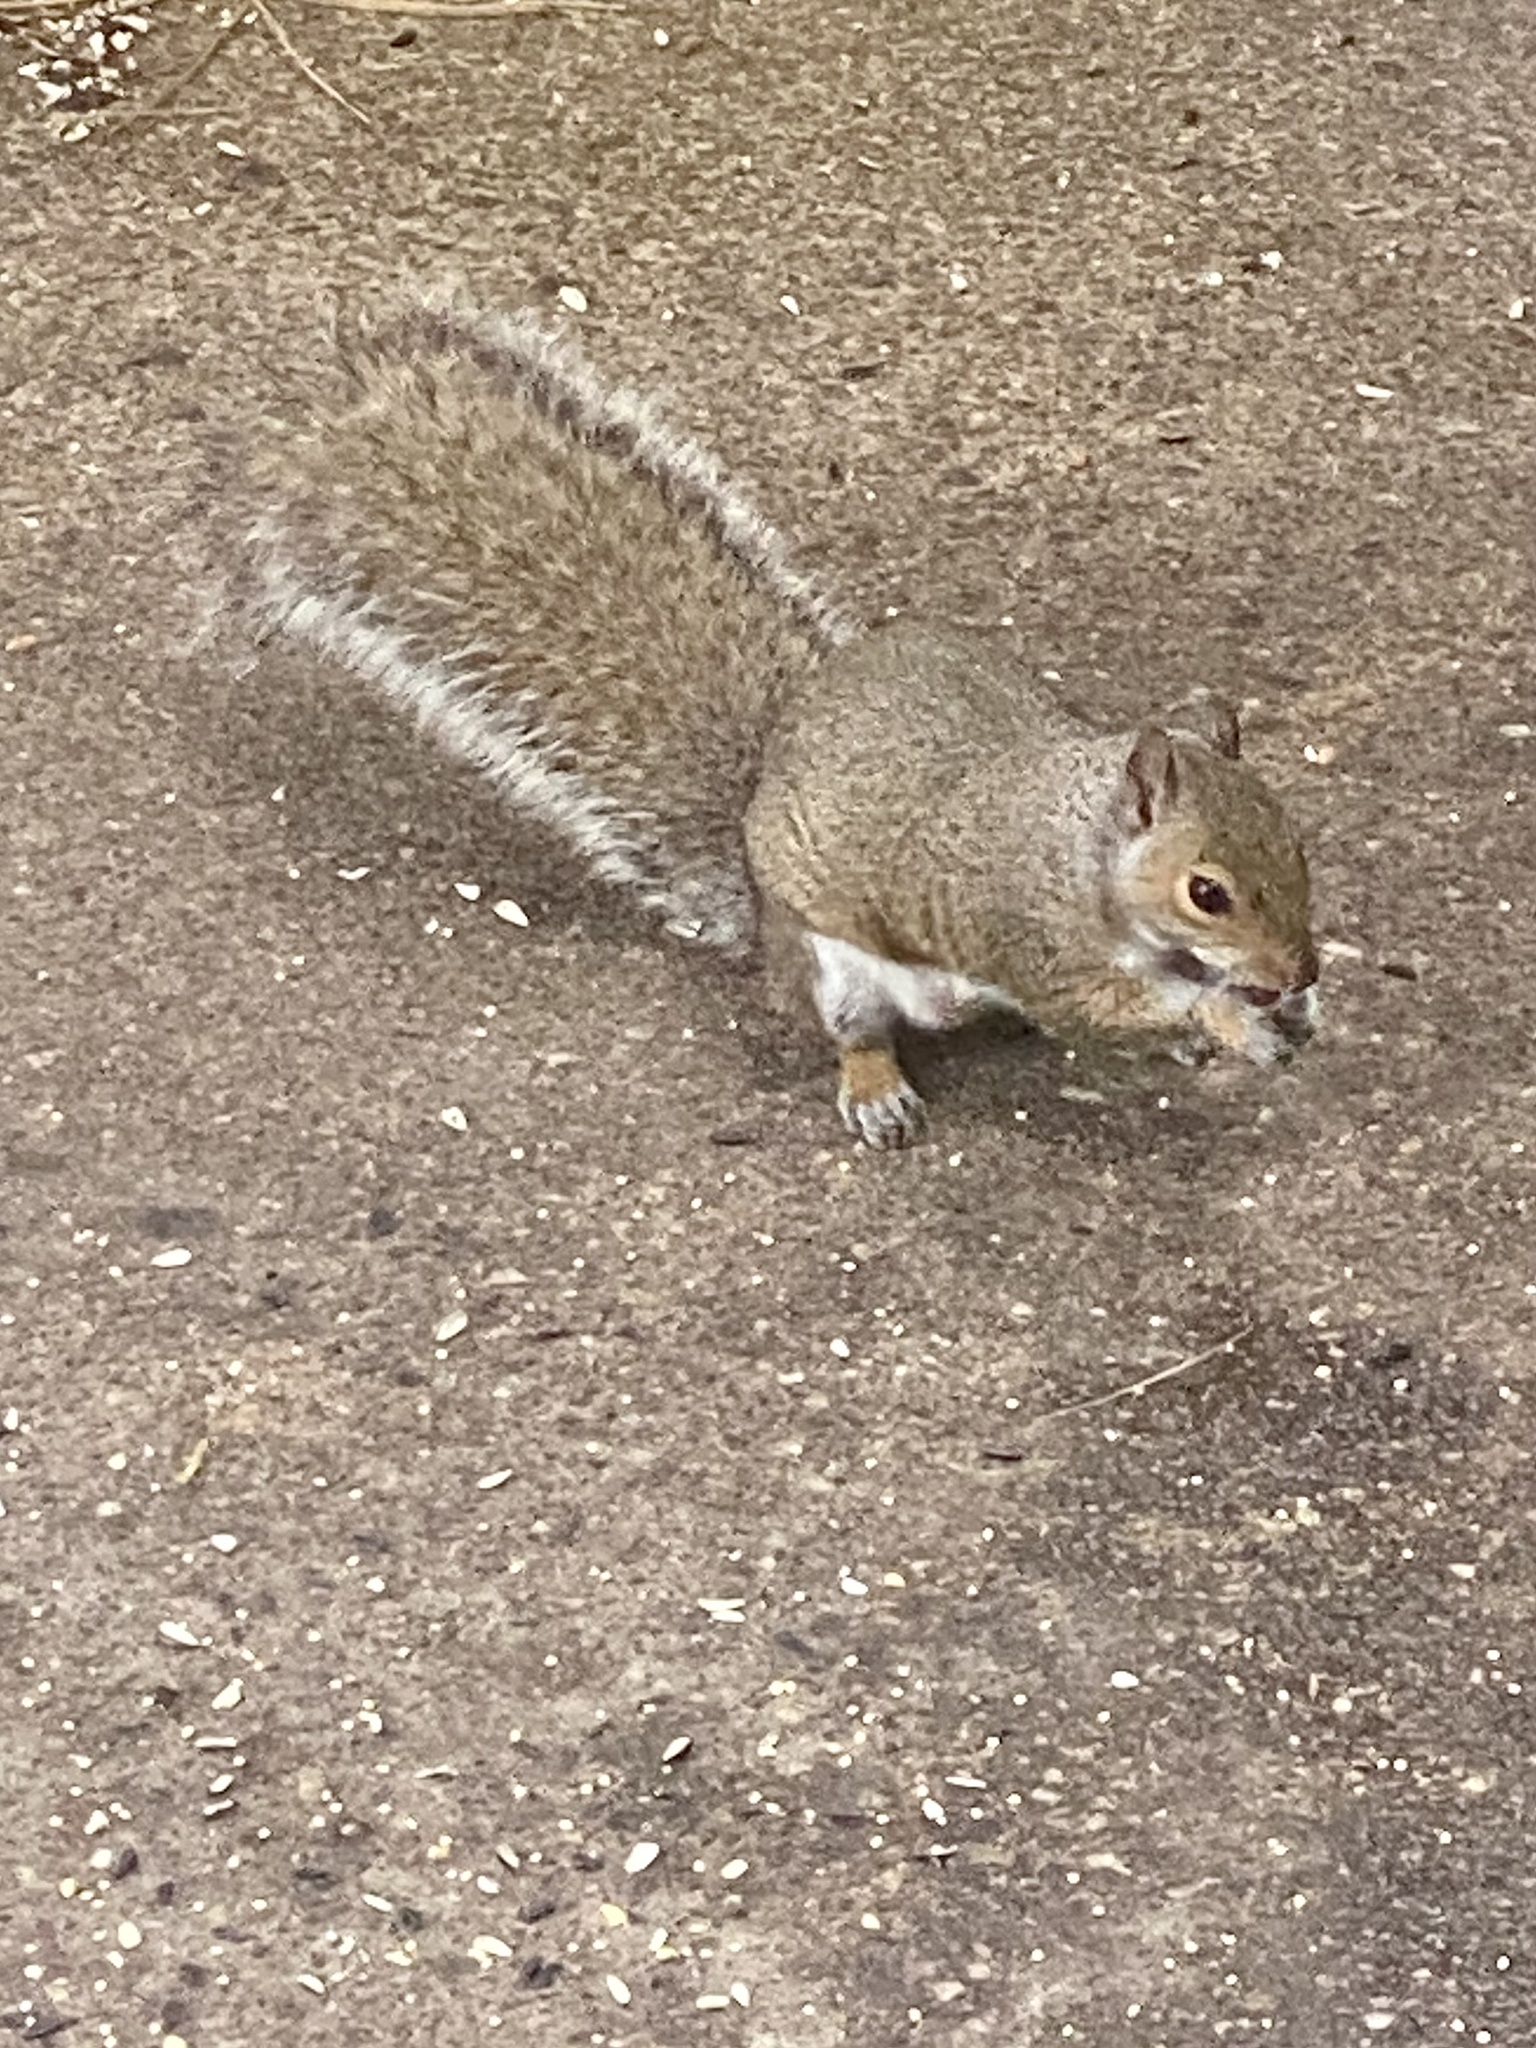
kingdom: Animalia
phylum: Chordata
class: Mammalia
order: Rodentia
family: Sciuridae
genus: Sciurus
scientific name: Sciurus carolinensis
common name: Eastern gray squirrel
